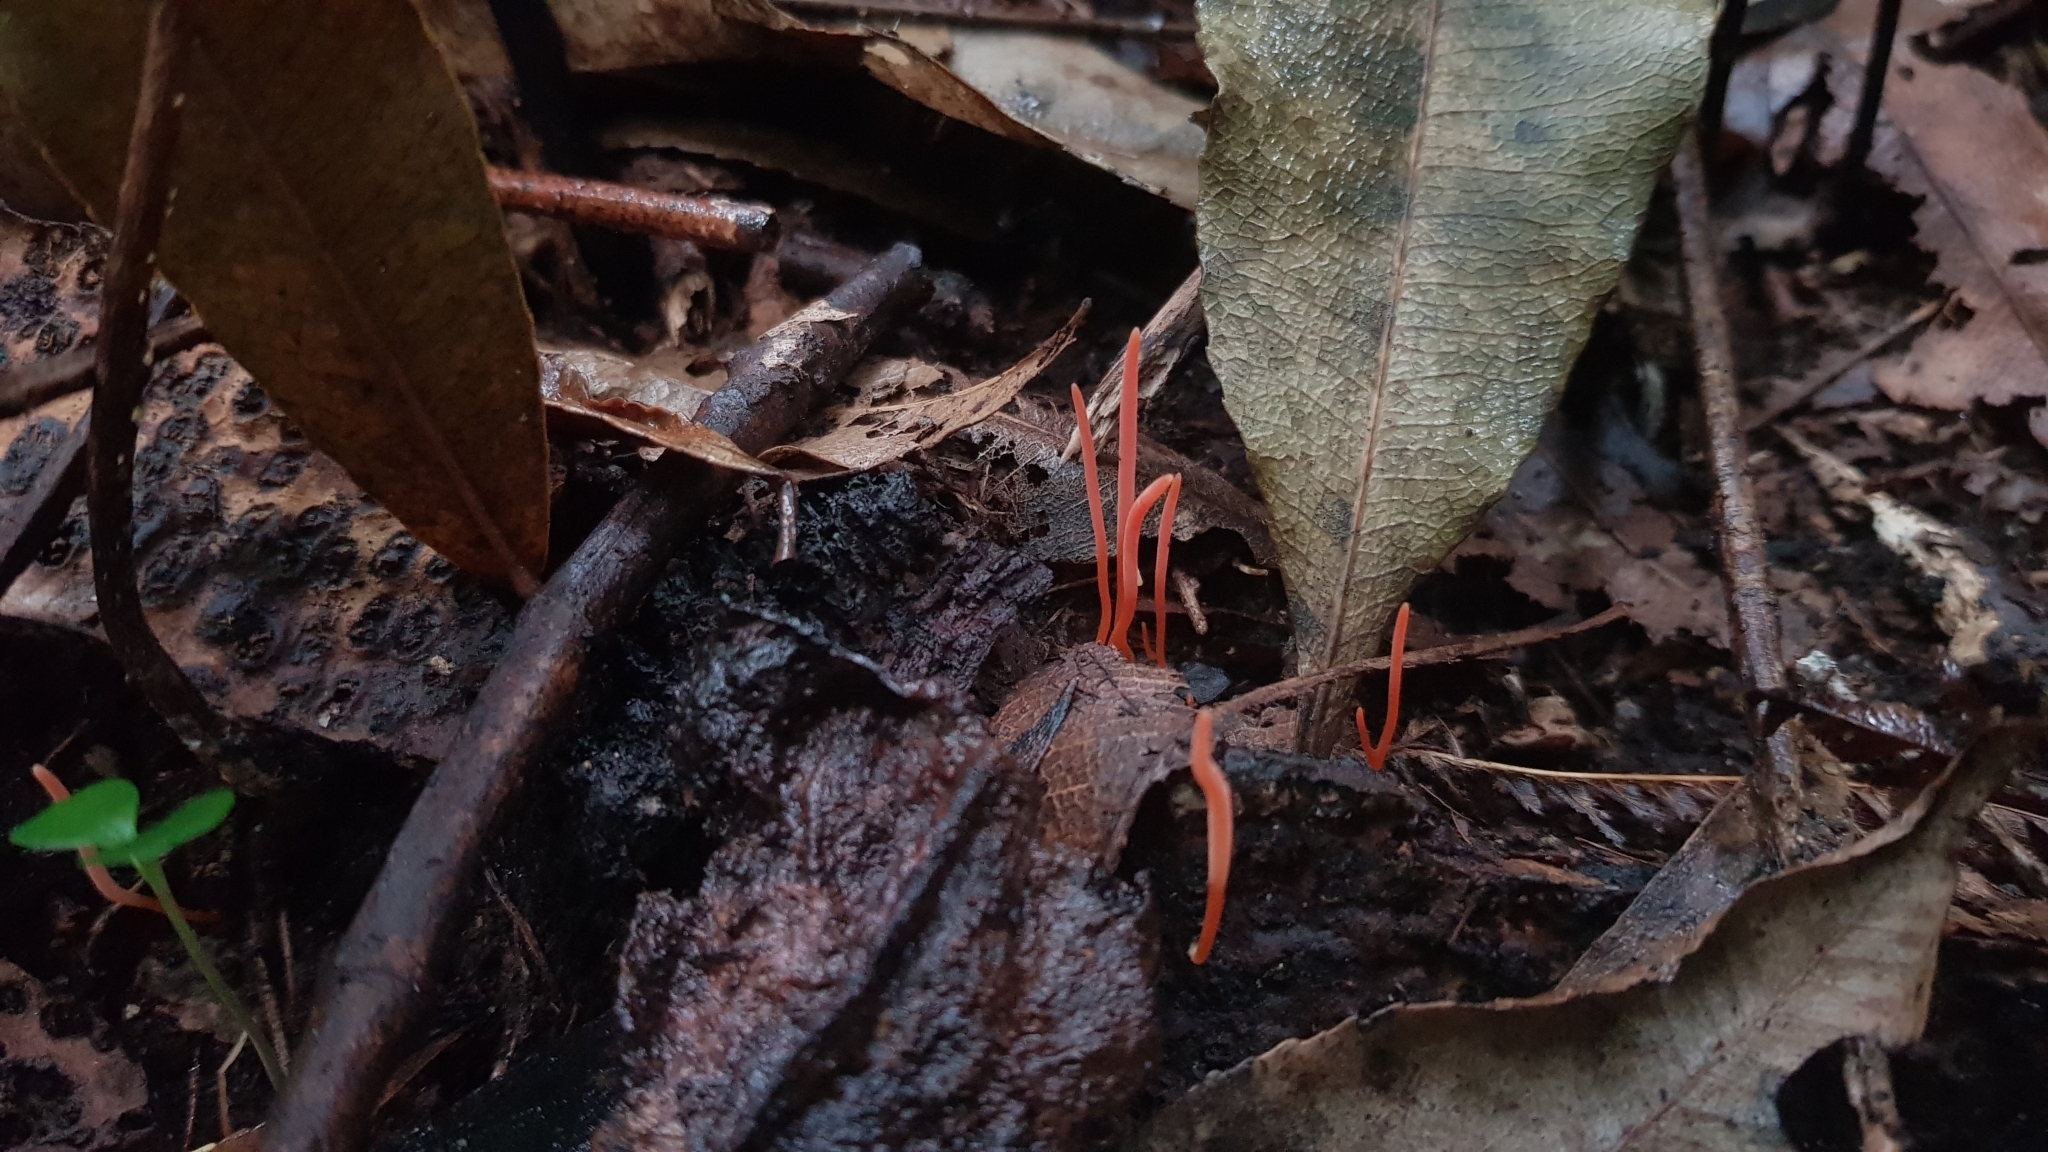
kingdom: Fungi
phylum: Basidiomycota
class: Agaricomycetes
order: Agaricales
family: Clavariaceae
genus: Clavulinopsis
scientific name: Clavulinopsis corallinorosacea
